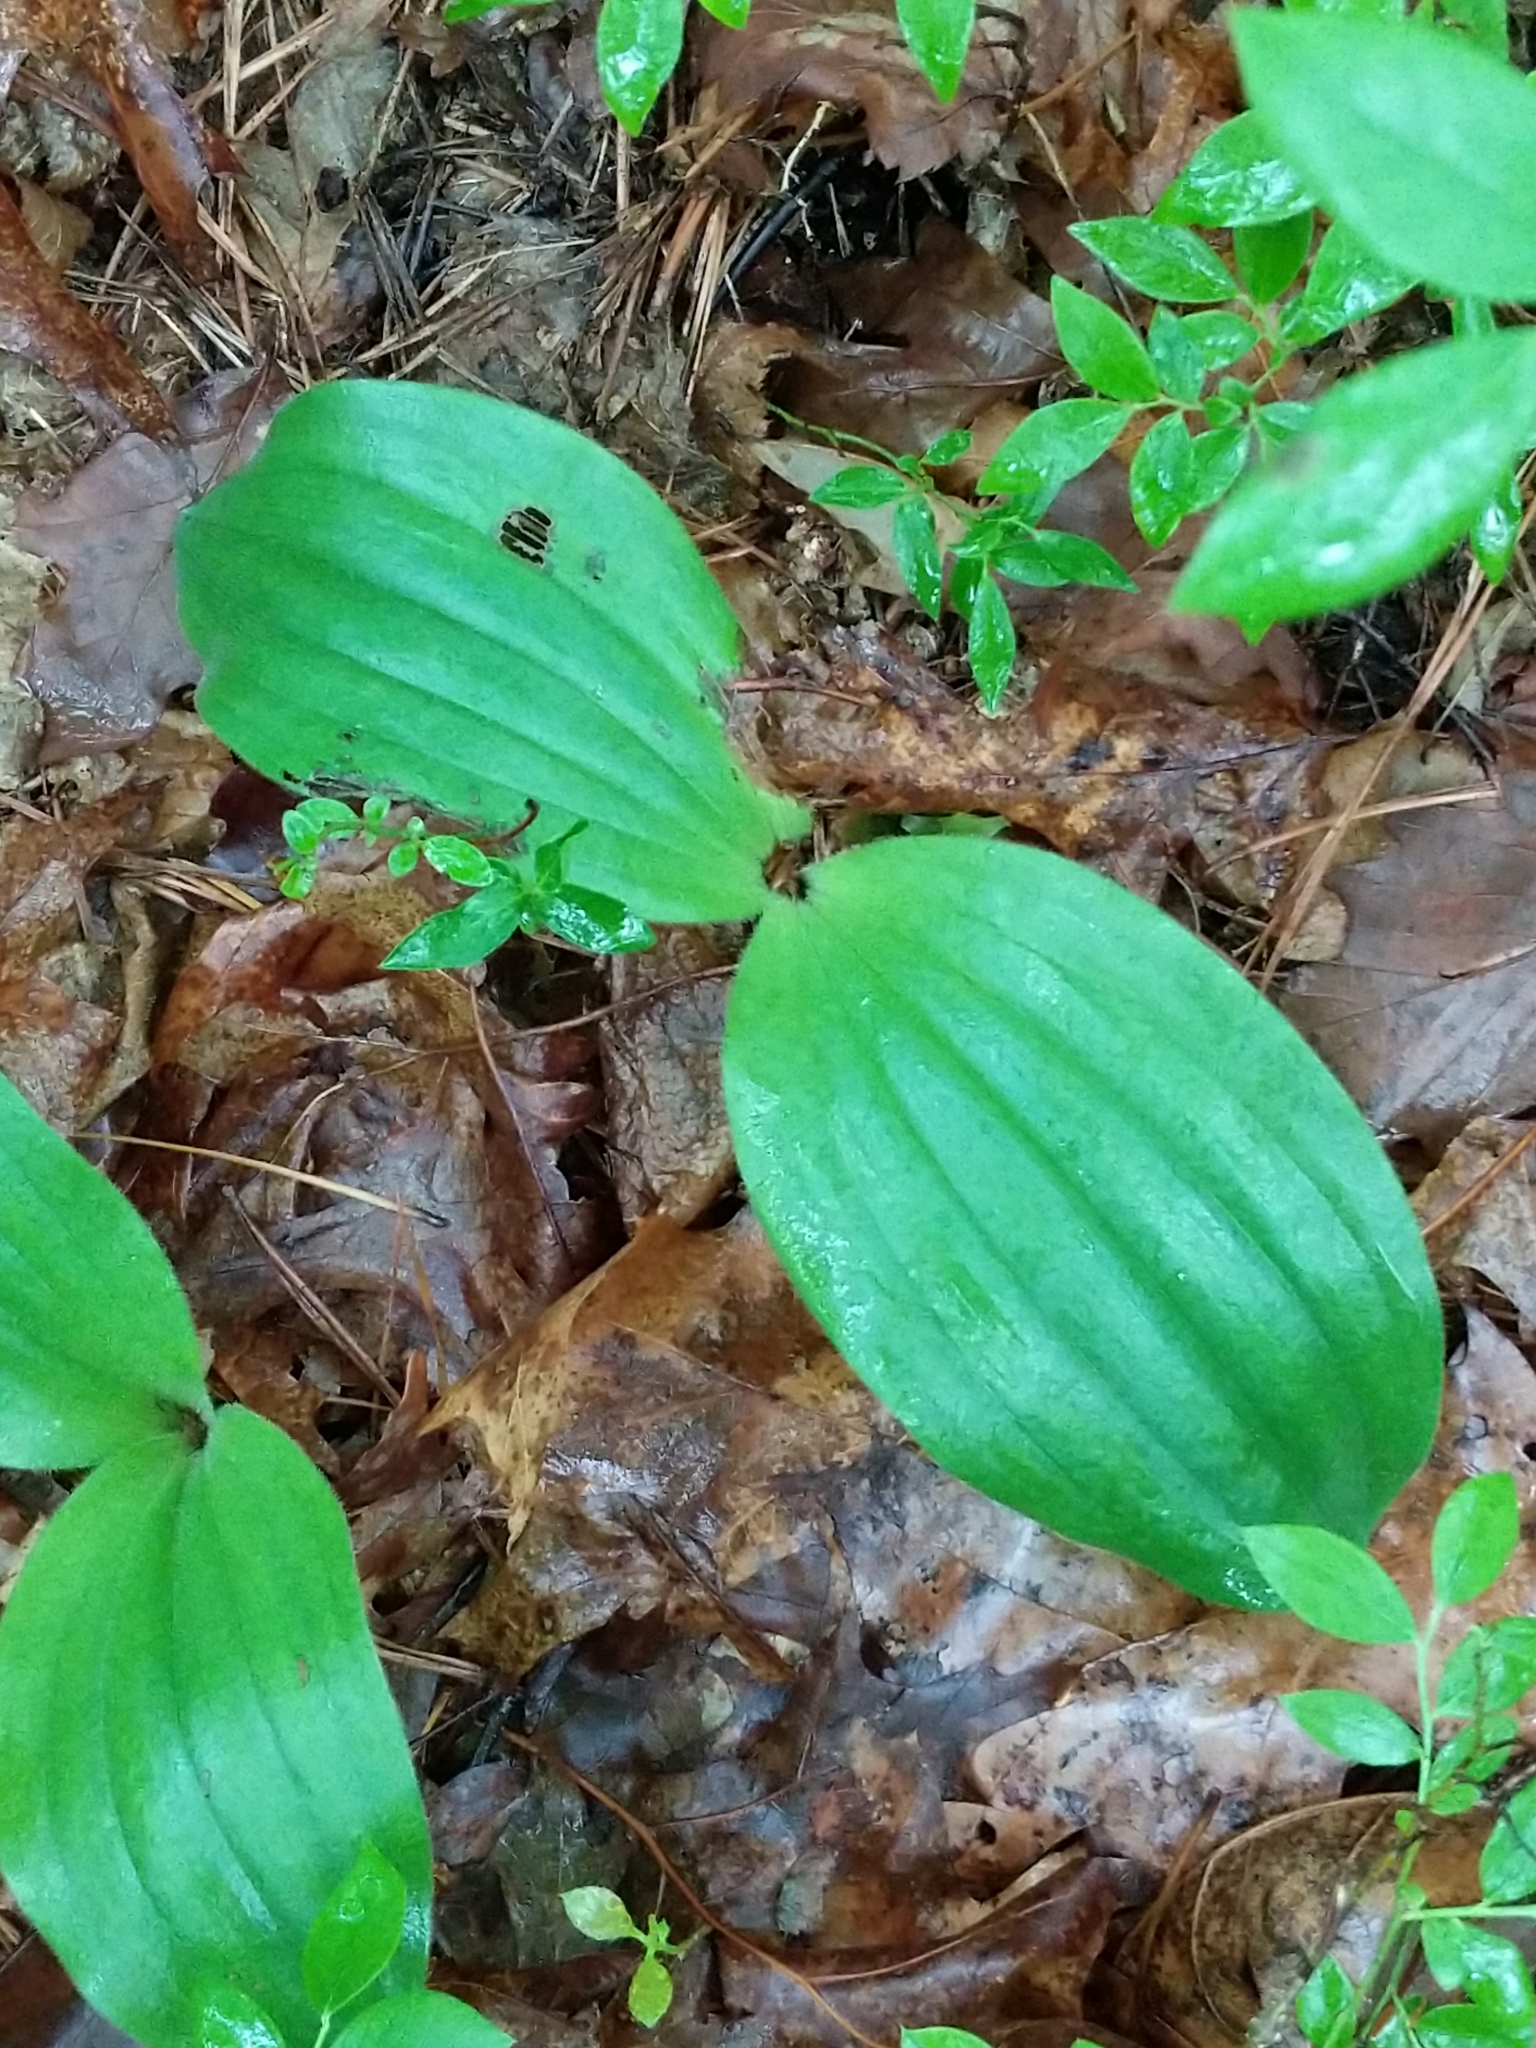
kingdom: Plantae
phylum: Tracheophyta
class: Liliopsida
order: Asparagales
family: Orchidaceae
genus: Cypripedium
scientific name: Cypripedium acaule
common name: Pink lady's-slipper
